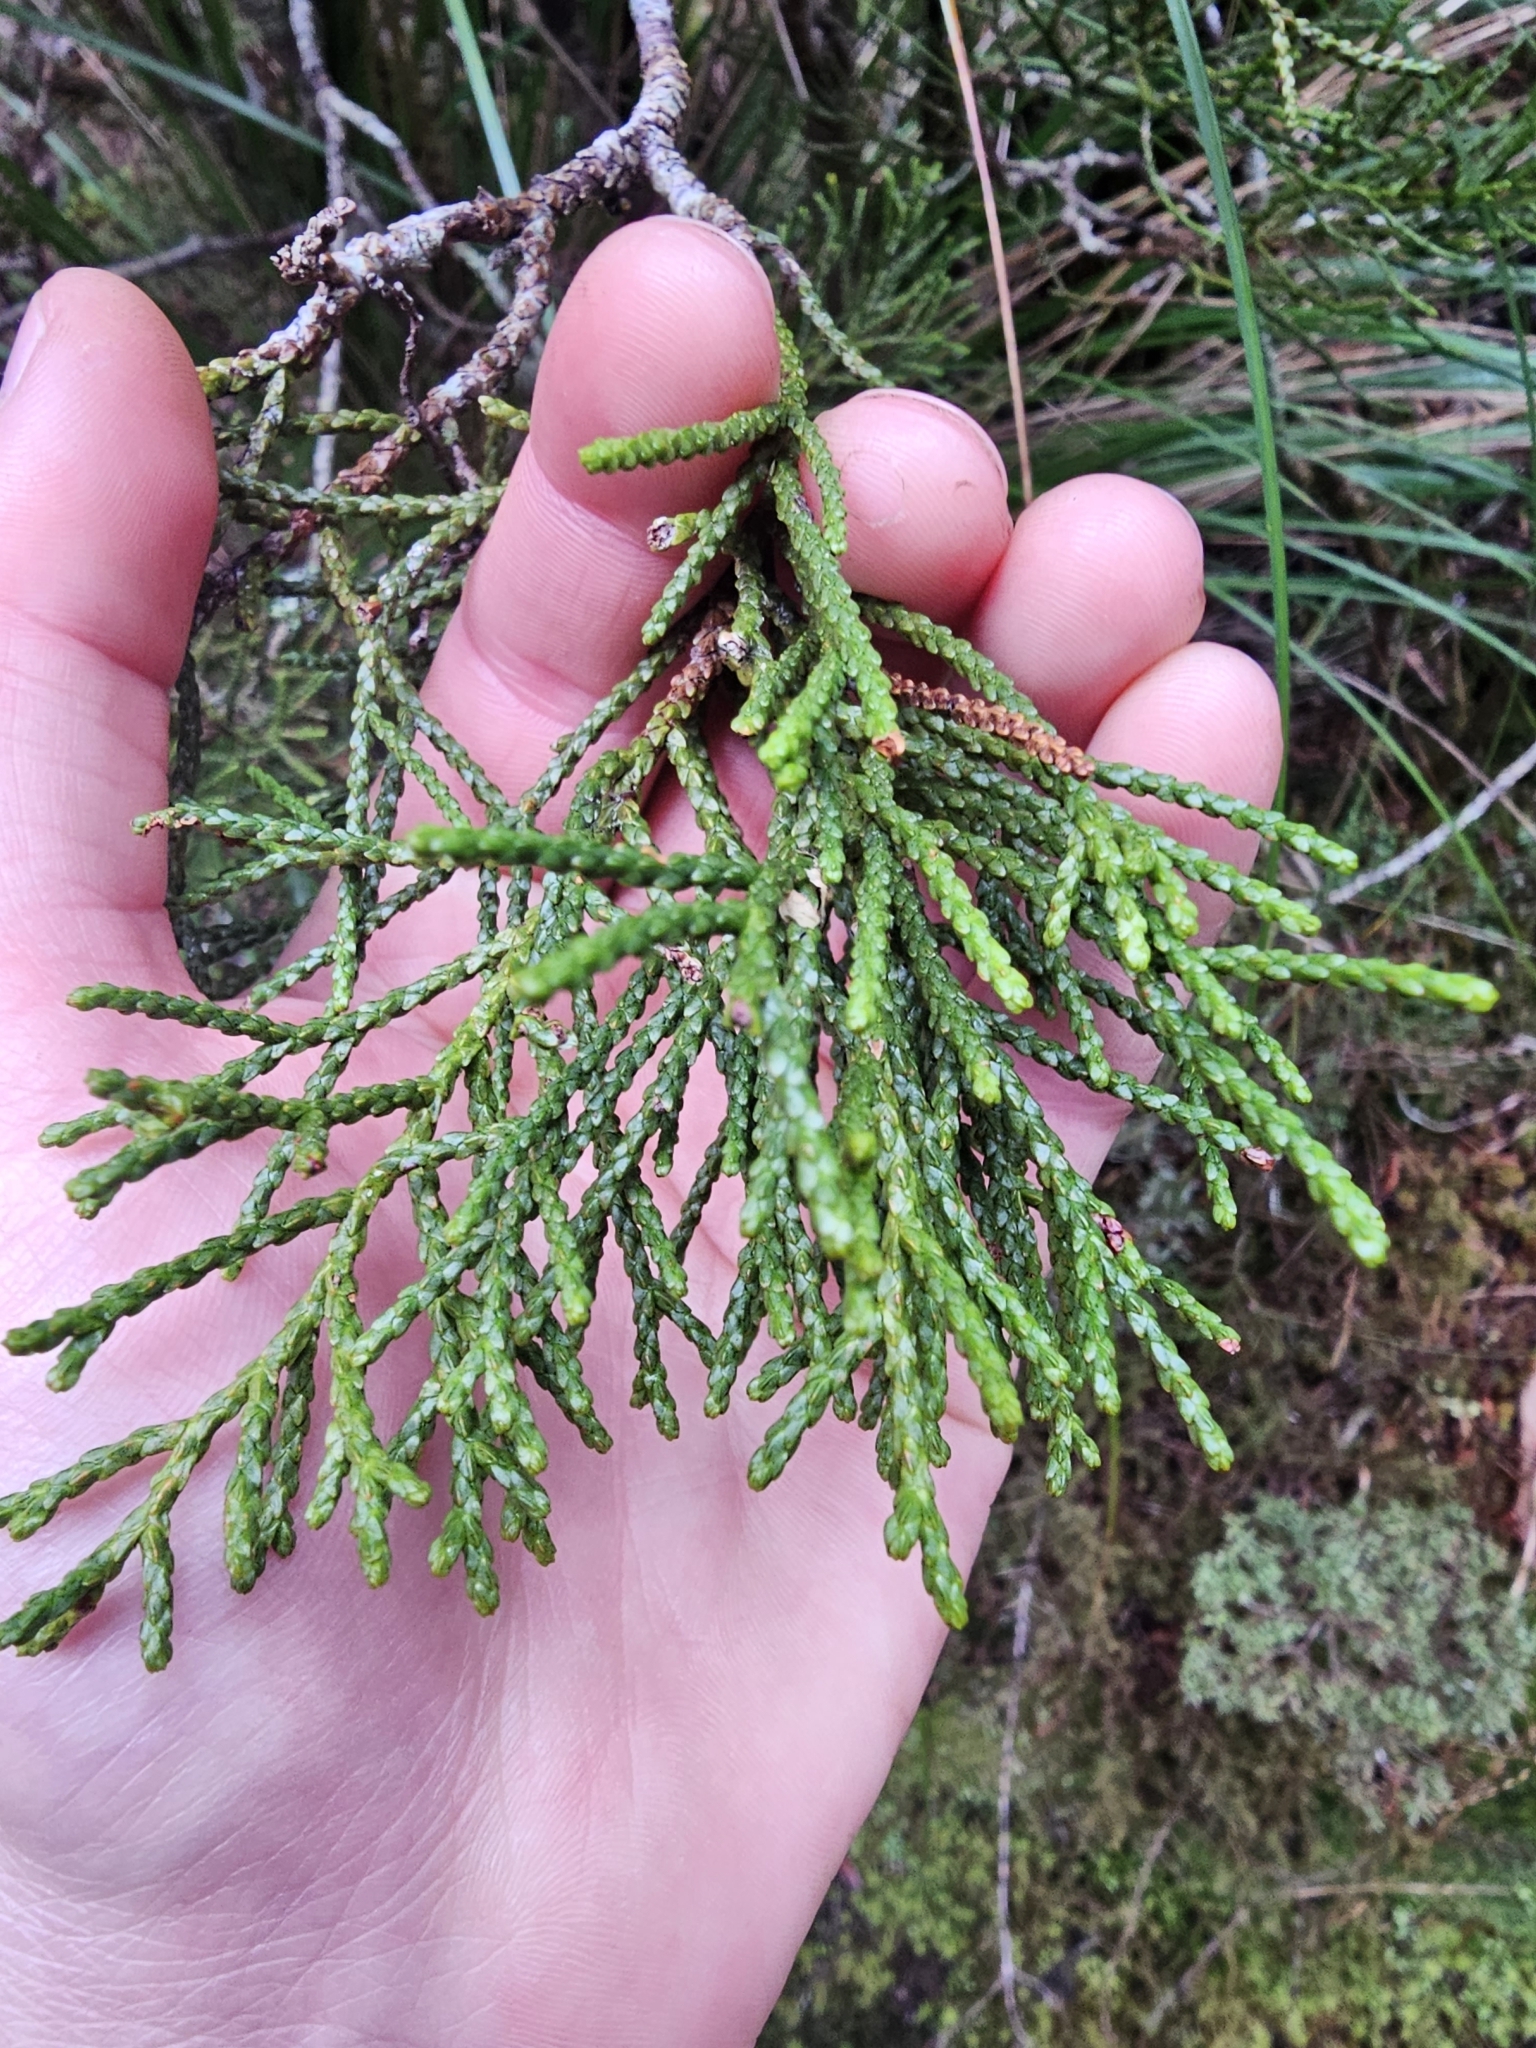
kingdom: Plantae
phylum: Tracheophyta
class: Pinopsida
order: Pinales
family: Podocarpaceae
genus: Halocarpus
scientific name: Halocarpus biformis
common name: Alpine tarwood
